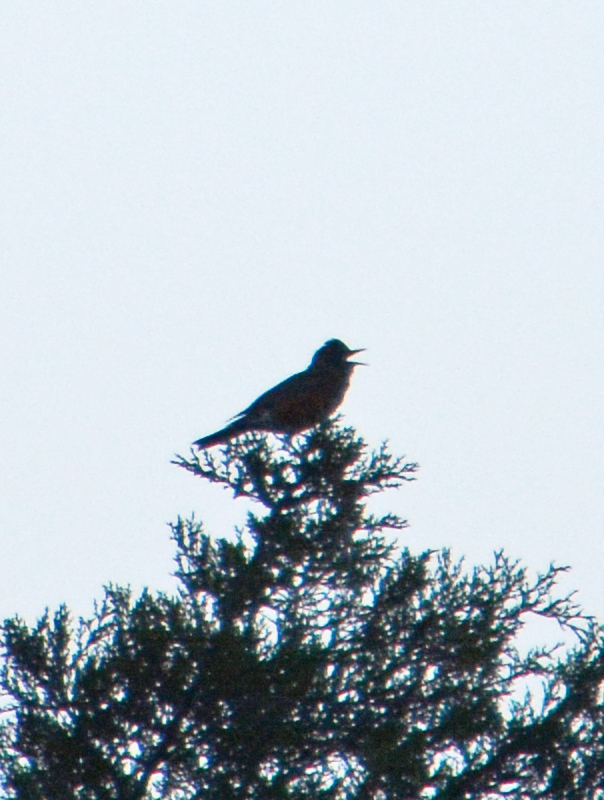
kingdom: Animalia
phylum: Chordata
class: Aves
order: Passeriformes
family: Turdidae
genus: Turdus
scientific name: Turdus migratorius
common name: American robin
